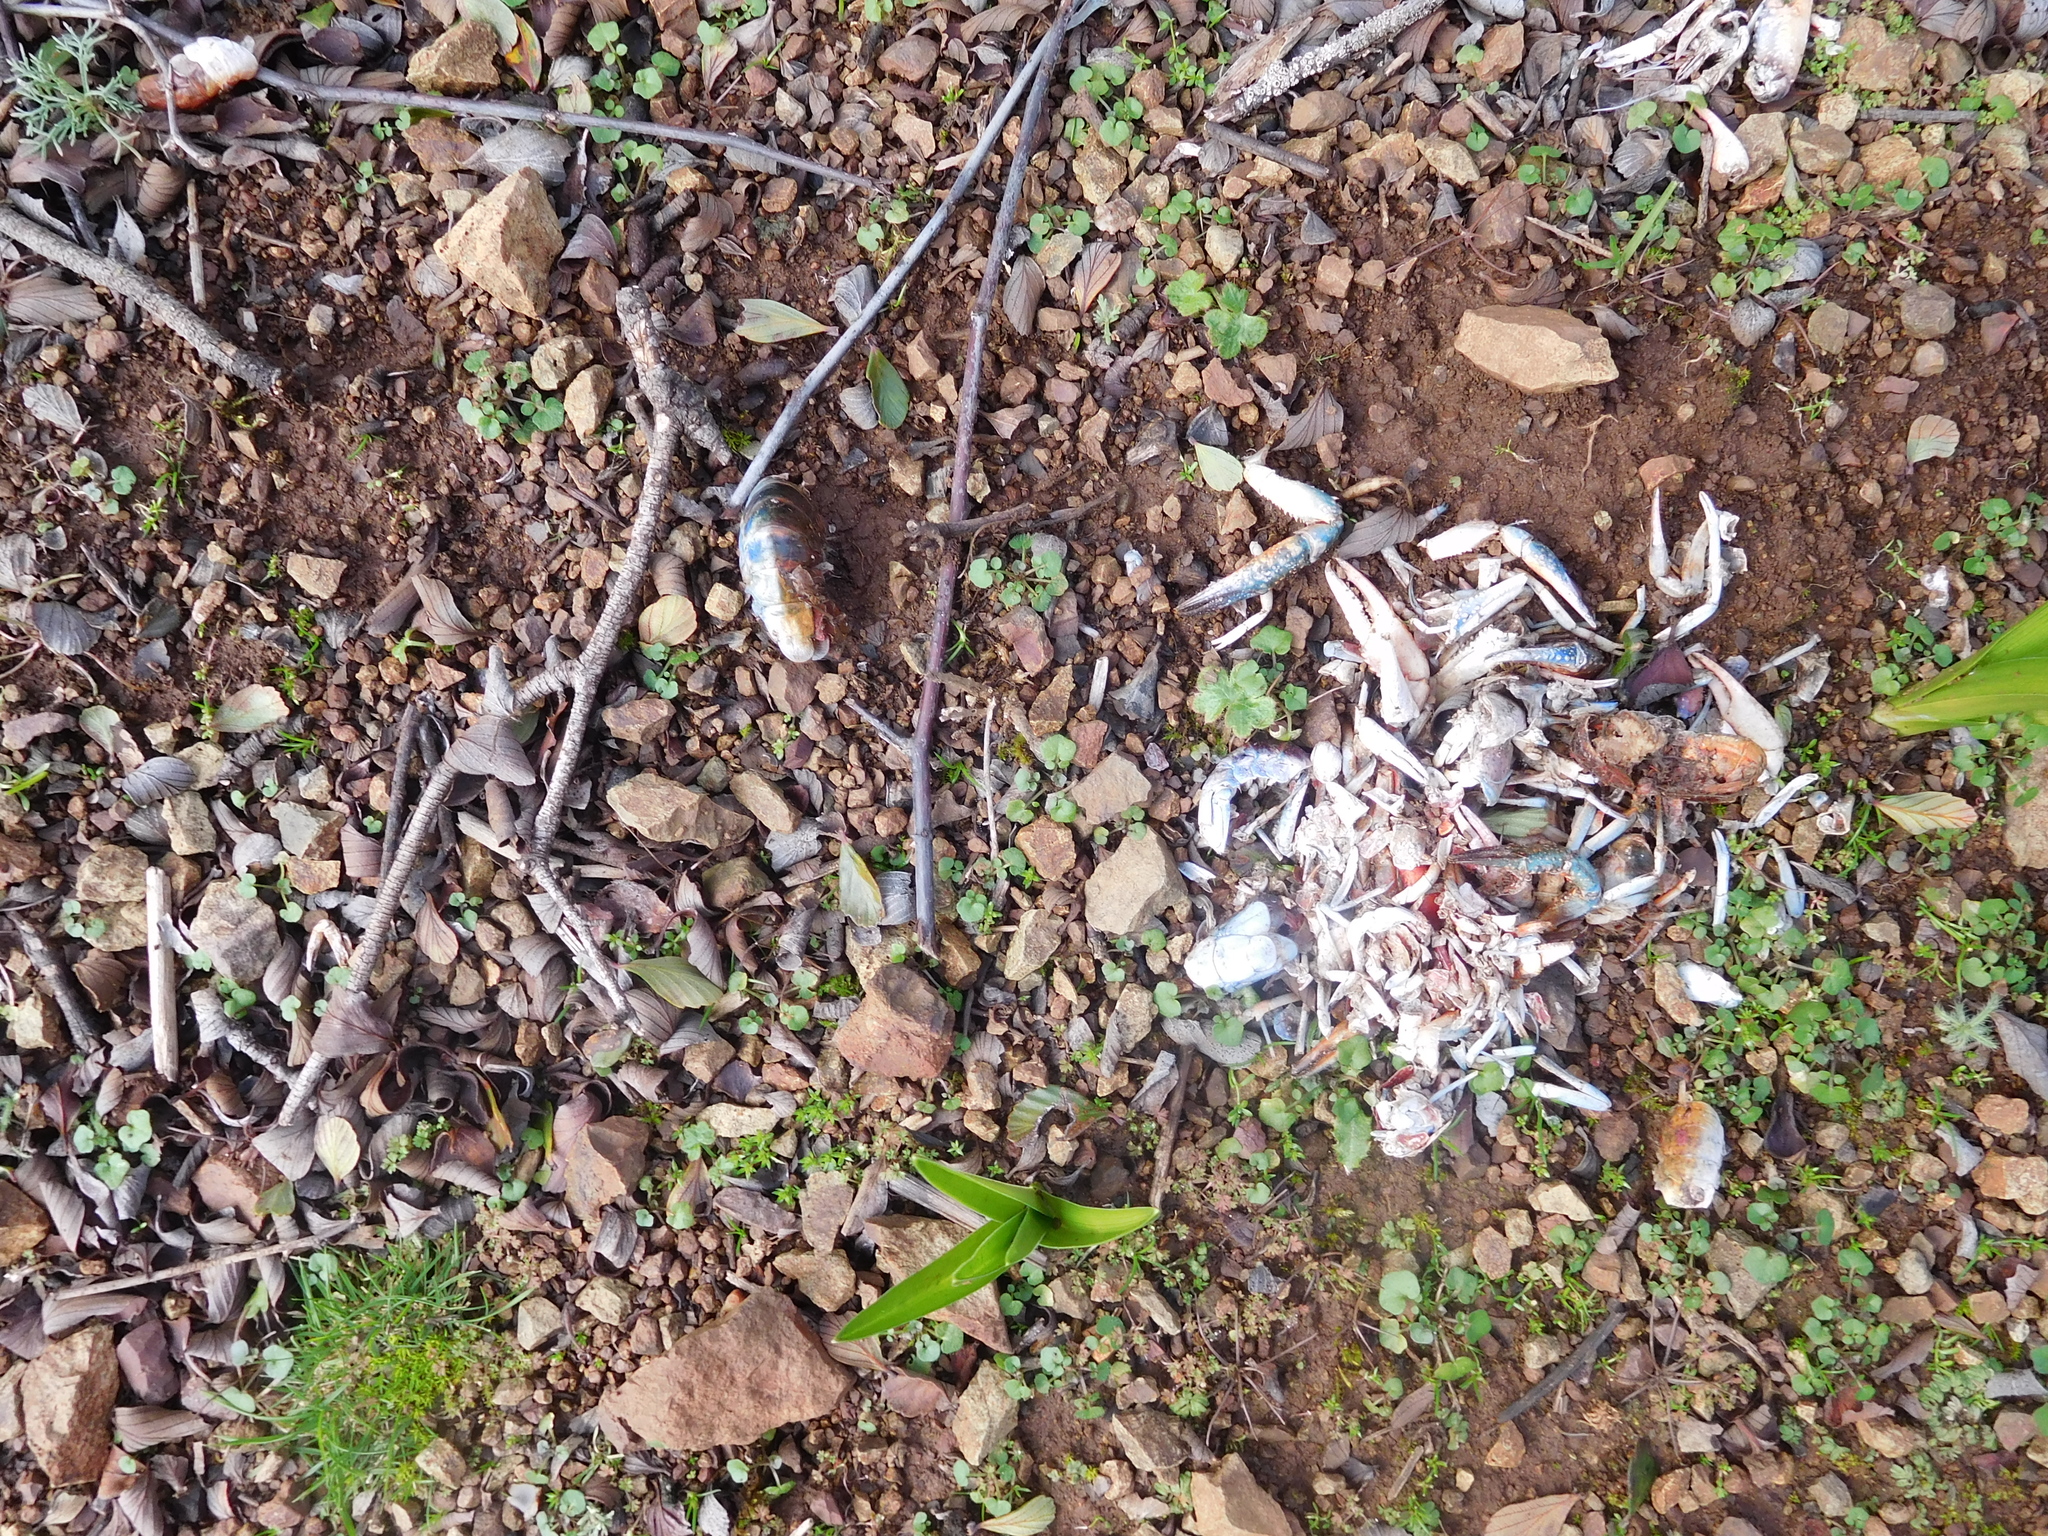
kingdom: Animalia
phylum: Arthropoda
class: Malacostraca
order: Decapoda
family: Cambaridae
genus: Procambarus
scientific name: Procambarus clarkii
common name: Red swamp crayfish
